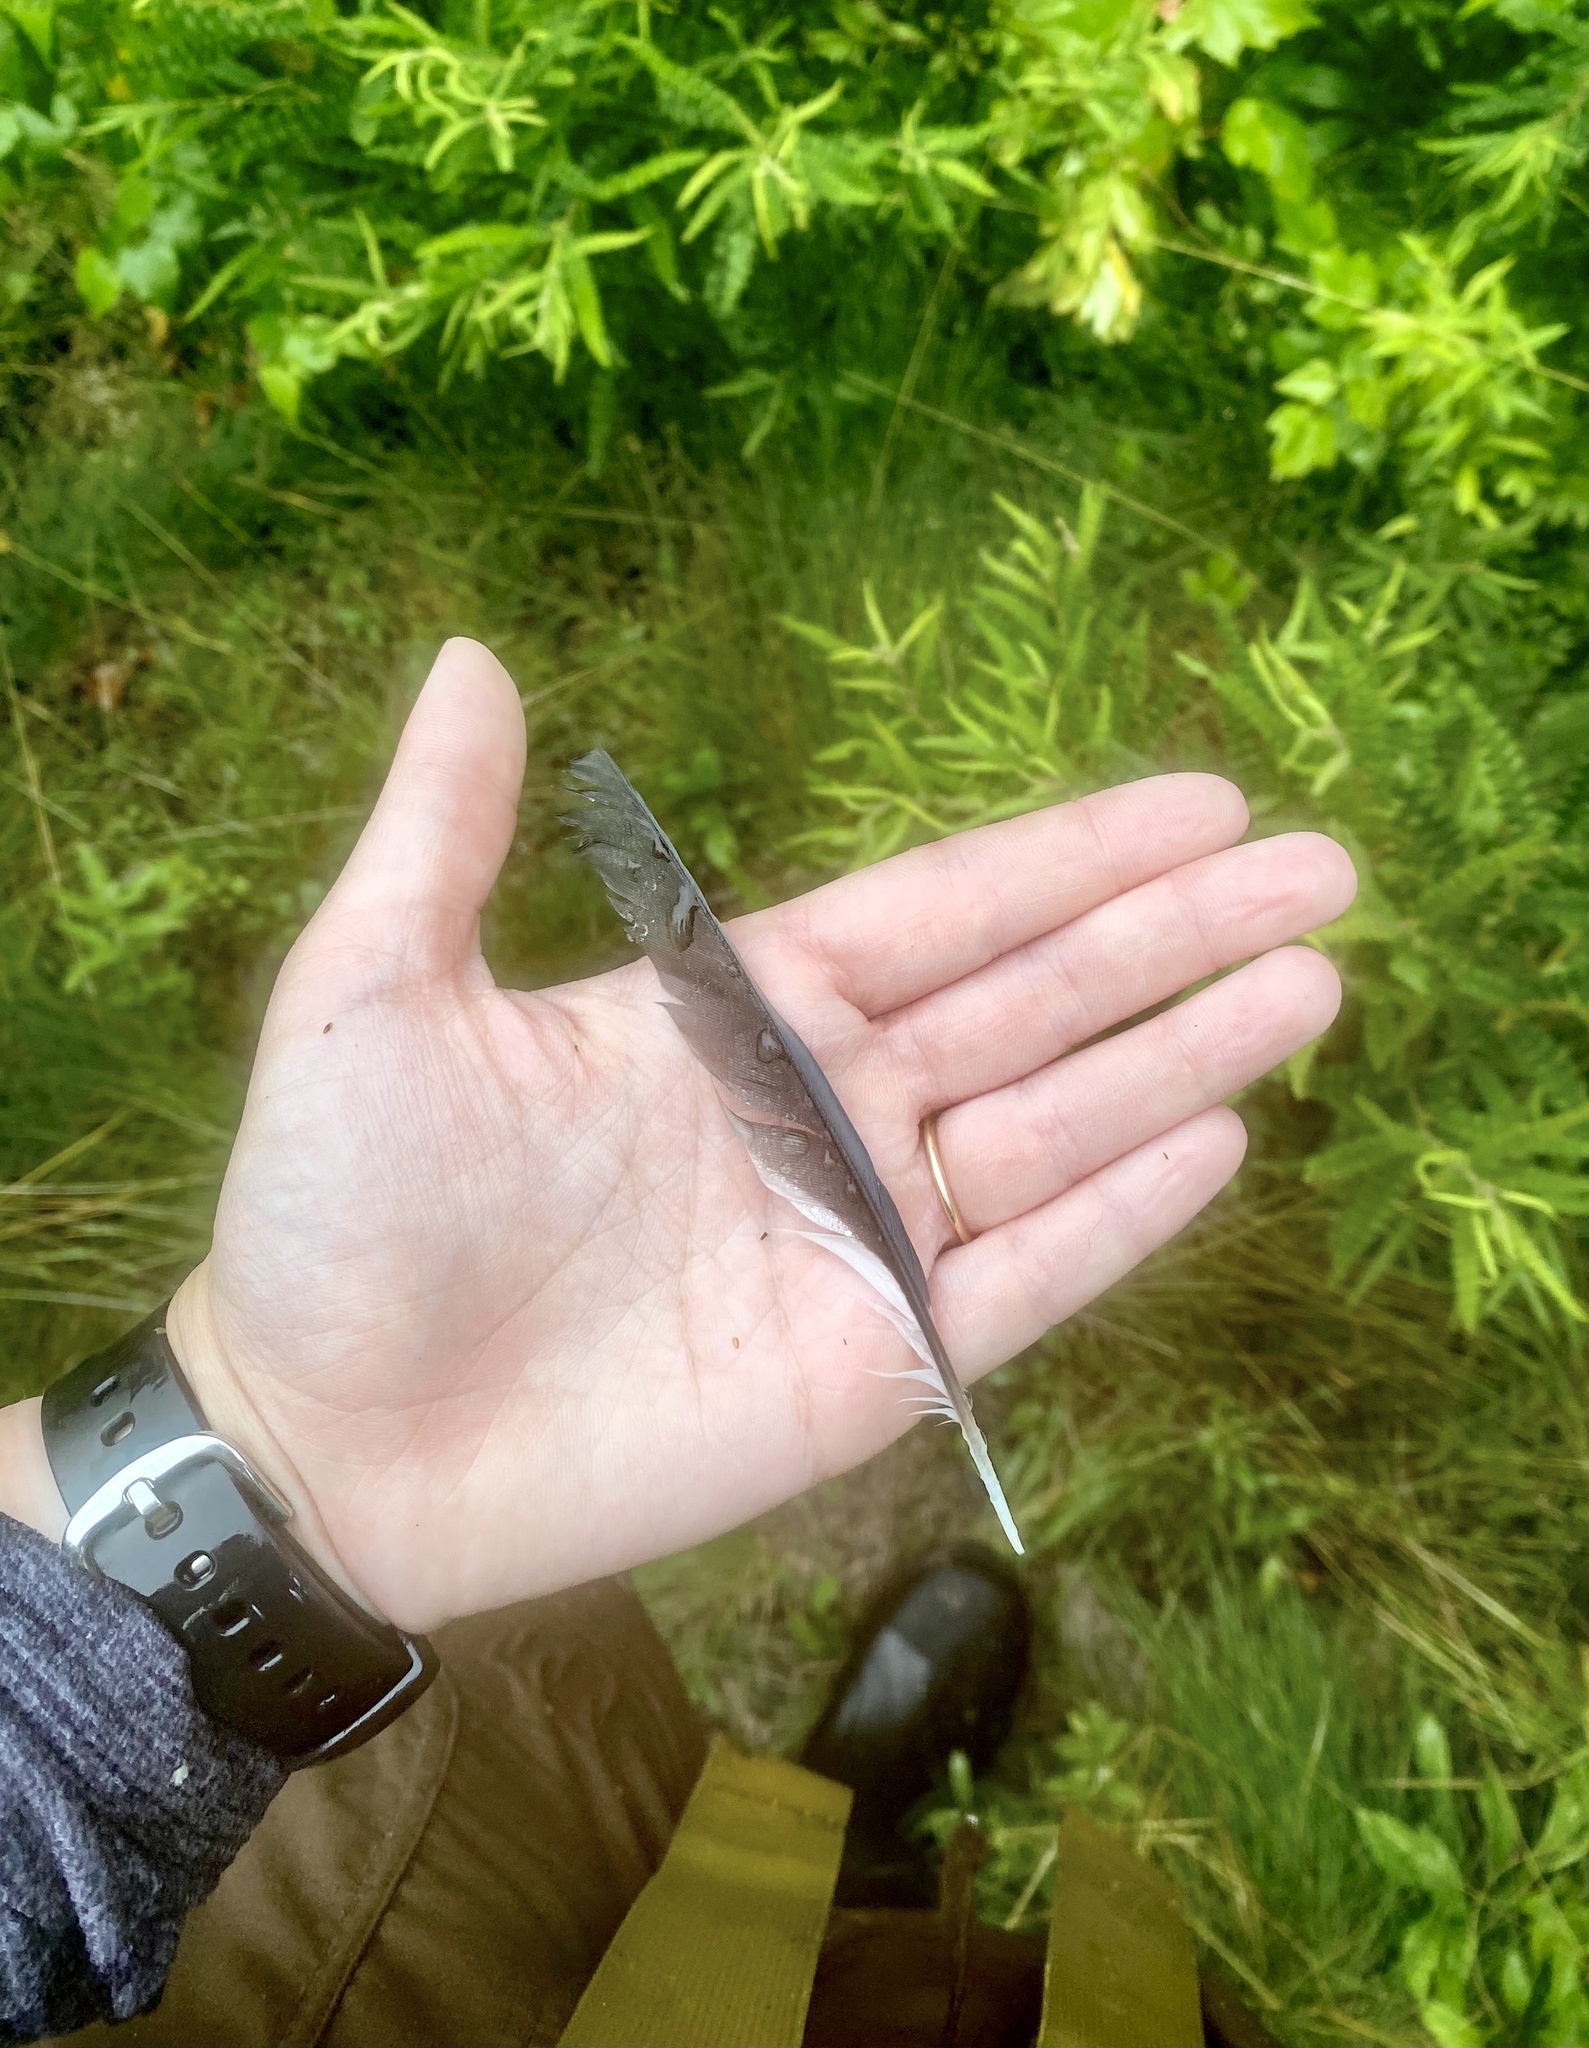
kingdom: Animalia
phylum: Chordata
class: Aves
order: Passeriformes
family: Corvidae
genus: Cyanocitta
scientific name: Cyanocitta cristata
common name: Blue jay
